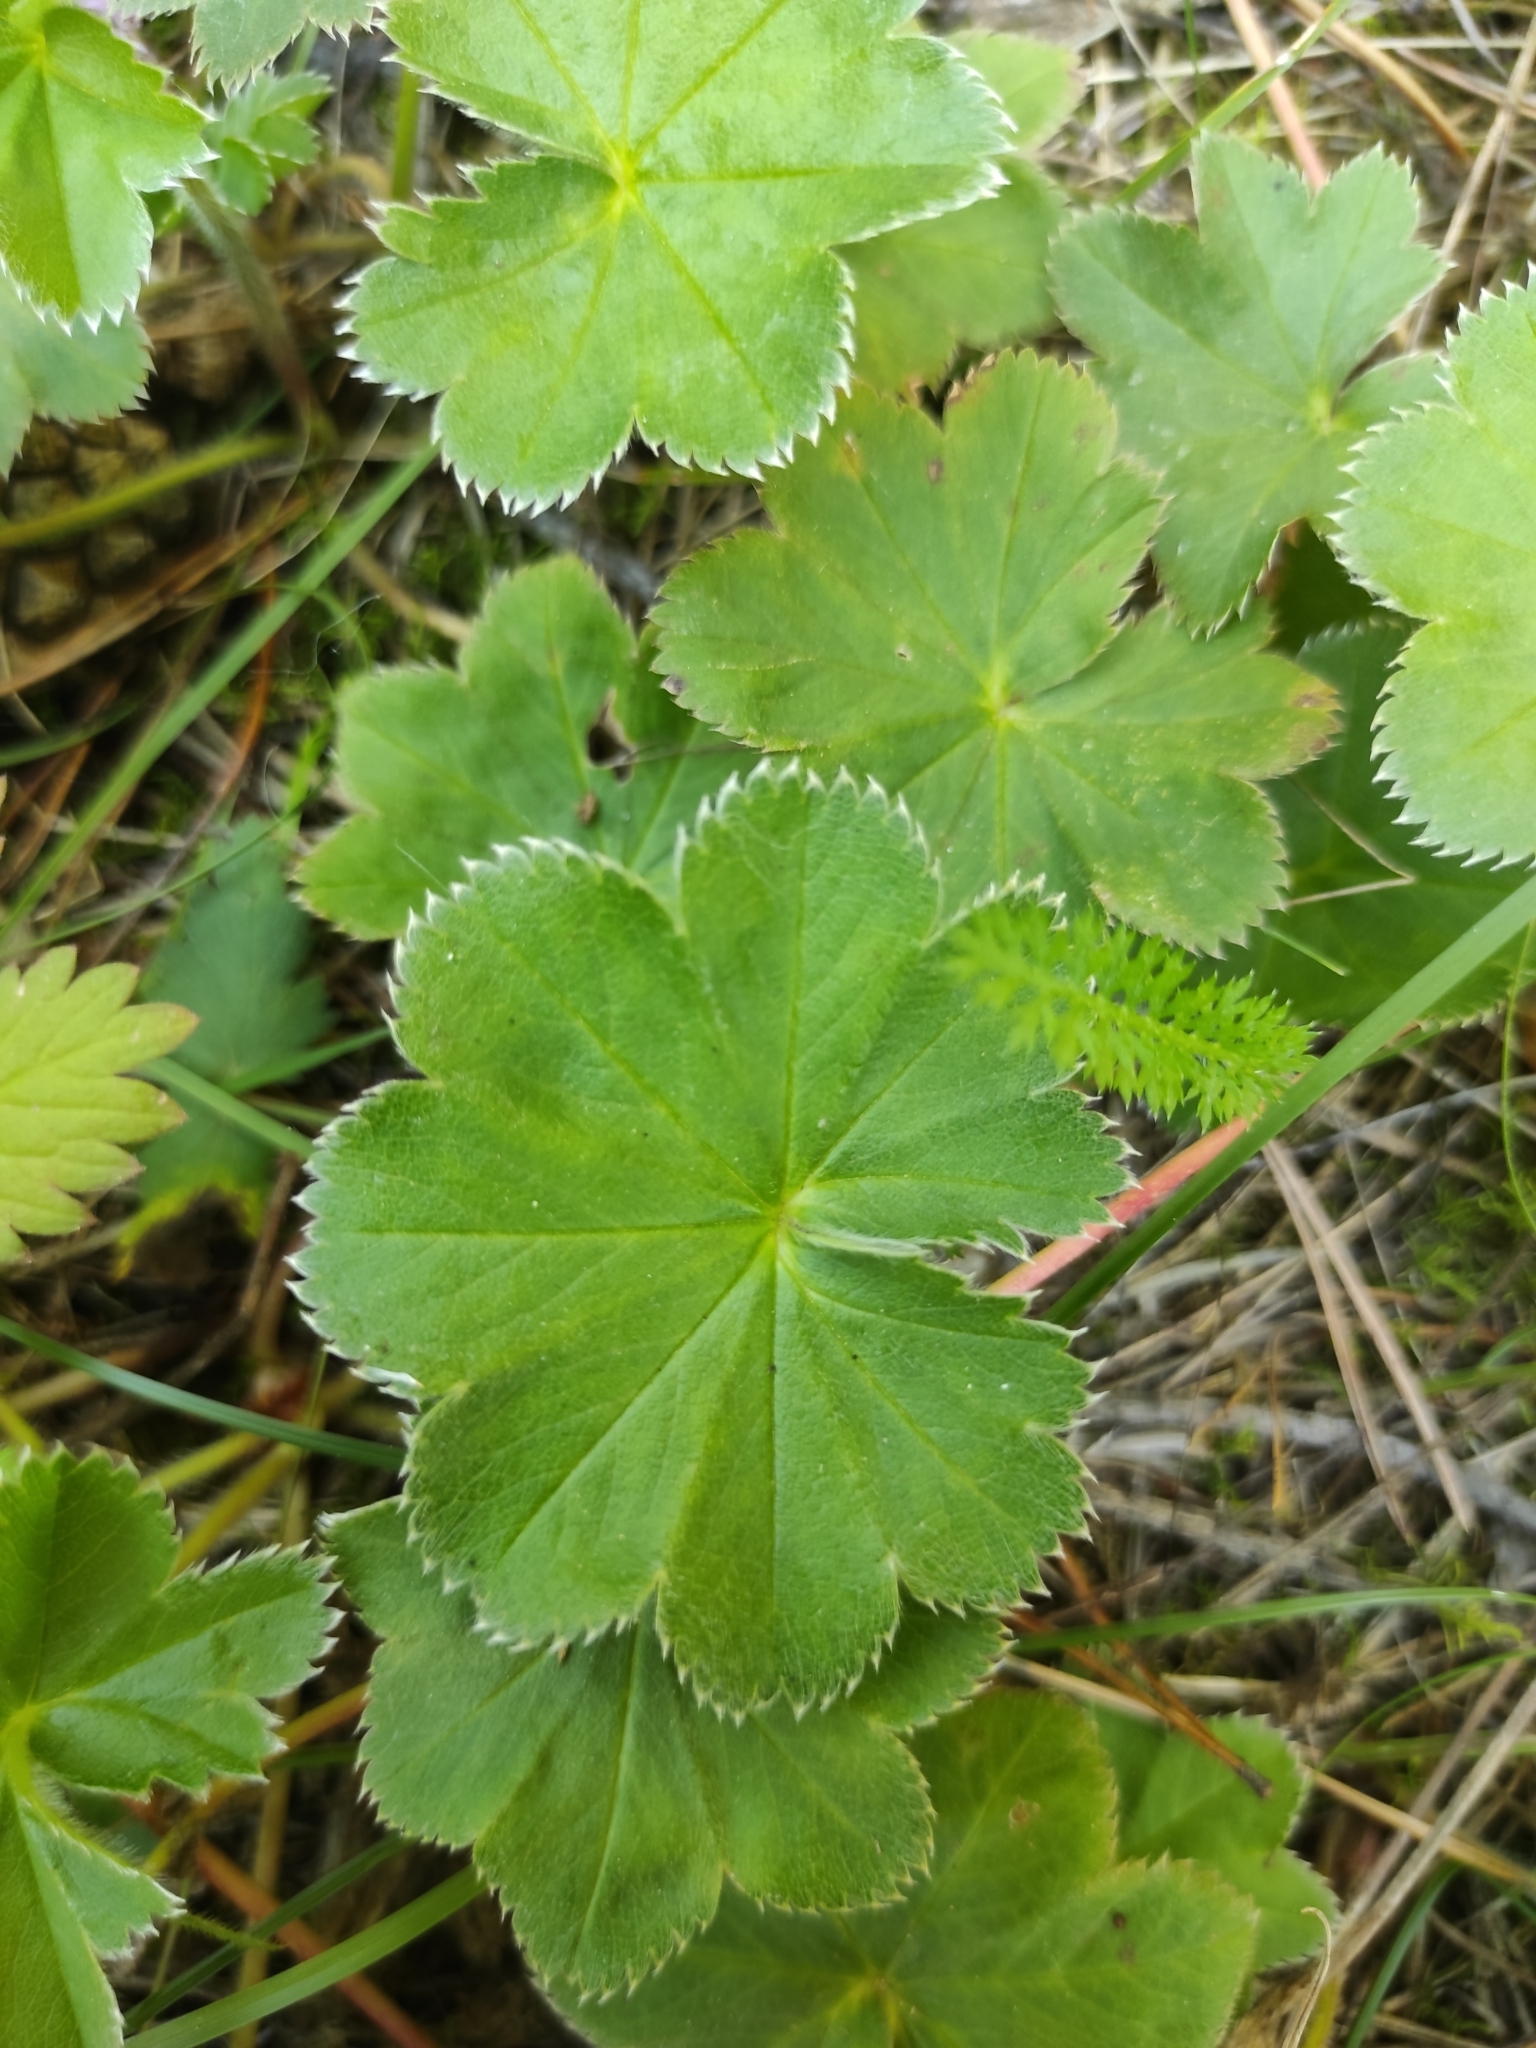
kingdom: Plantae
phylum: Tracheophyta
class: Magnoliopsida
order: Rosales
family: Rosaceae
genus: Alchemilla
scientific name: Alchemilla
